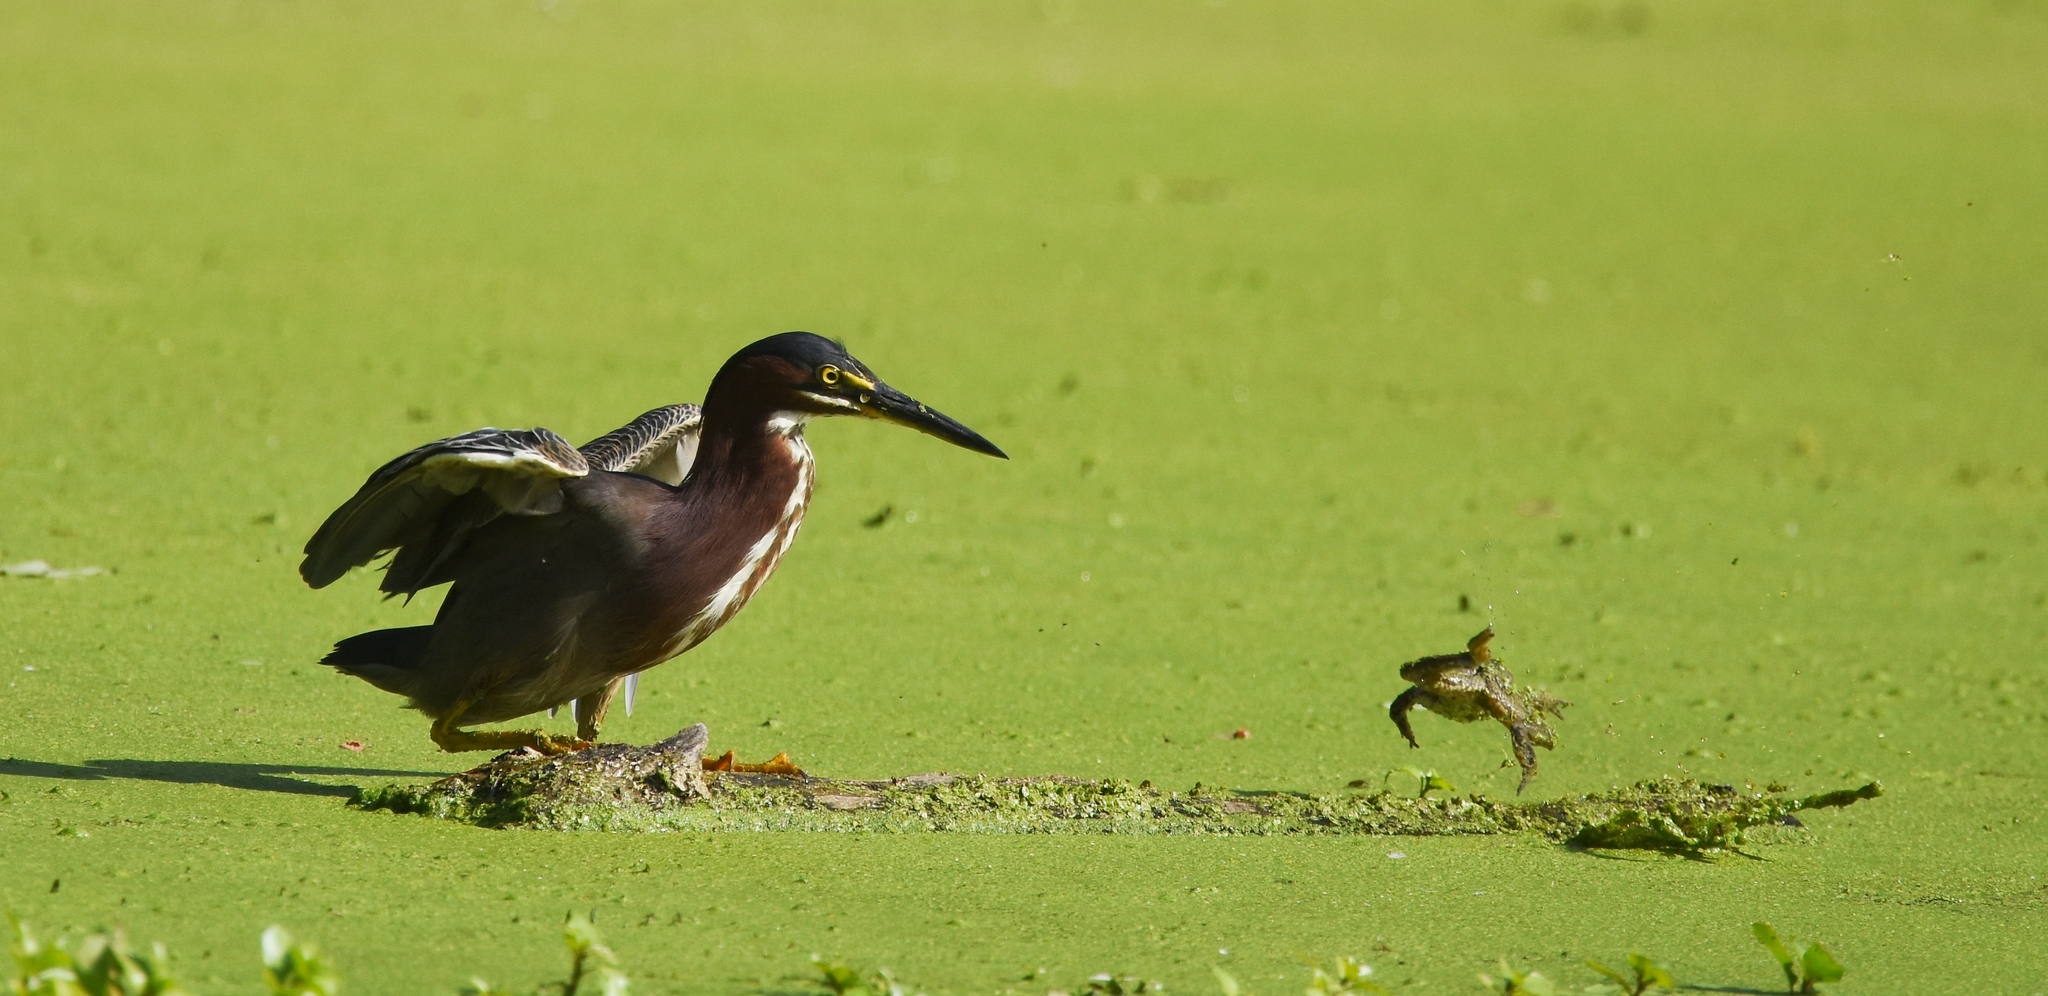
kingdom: Animalia
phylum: Chordata
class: Aves
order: Pelecaniformes
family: Ardeidae
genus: Butorides
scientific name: Butorides virescens
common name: Green heron
